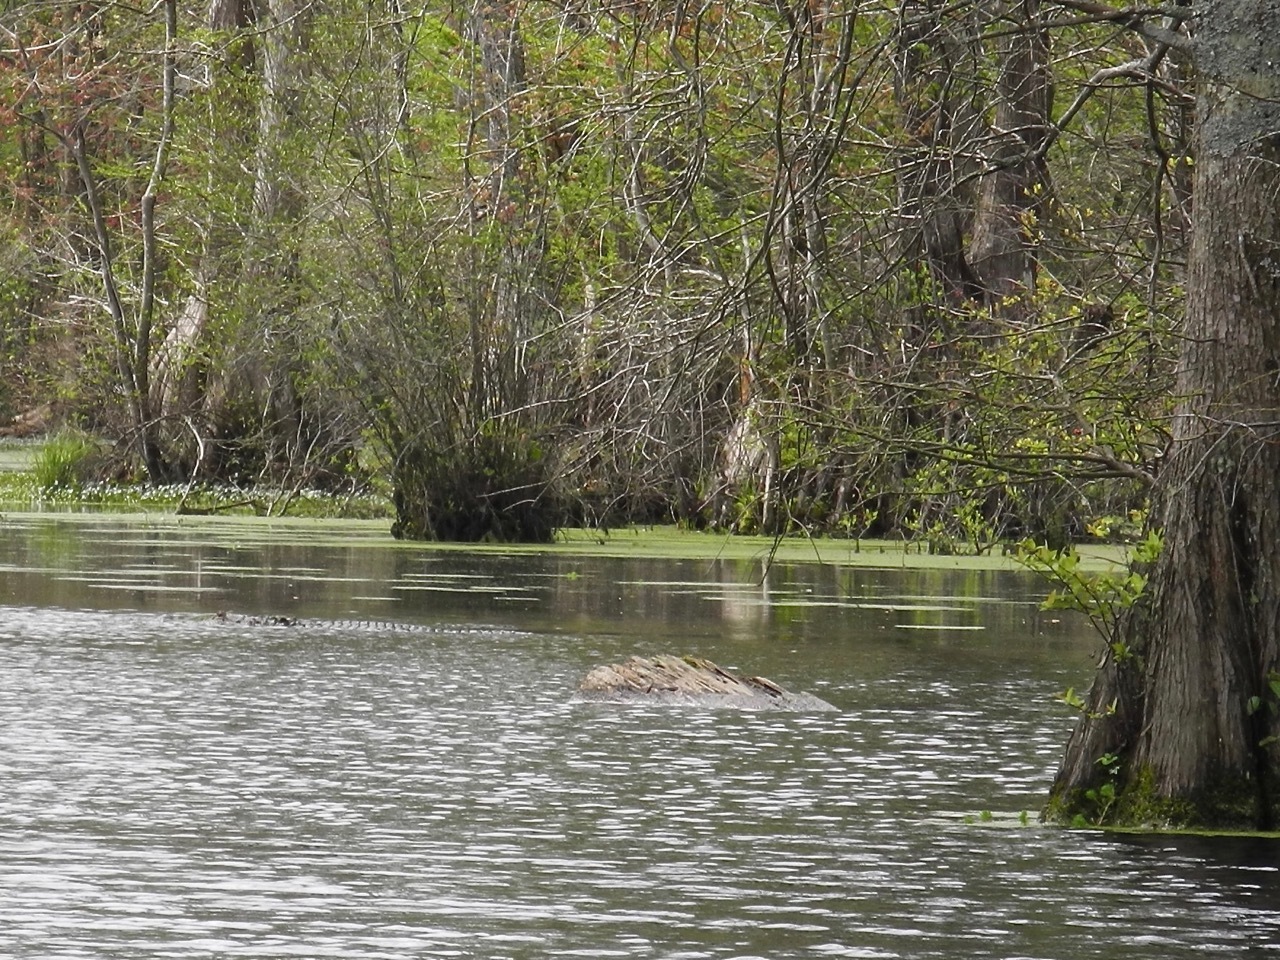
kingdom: Animalia
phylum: Chordata
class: Crocodylia
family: Alligatoridae
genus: Alligator
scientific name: Alligator mississippiensis
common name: American alligator
